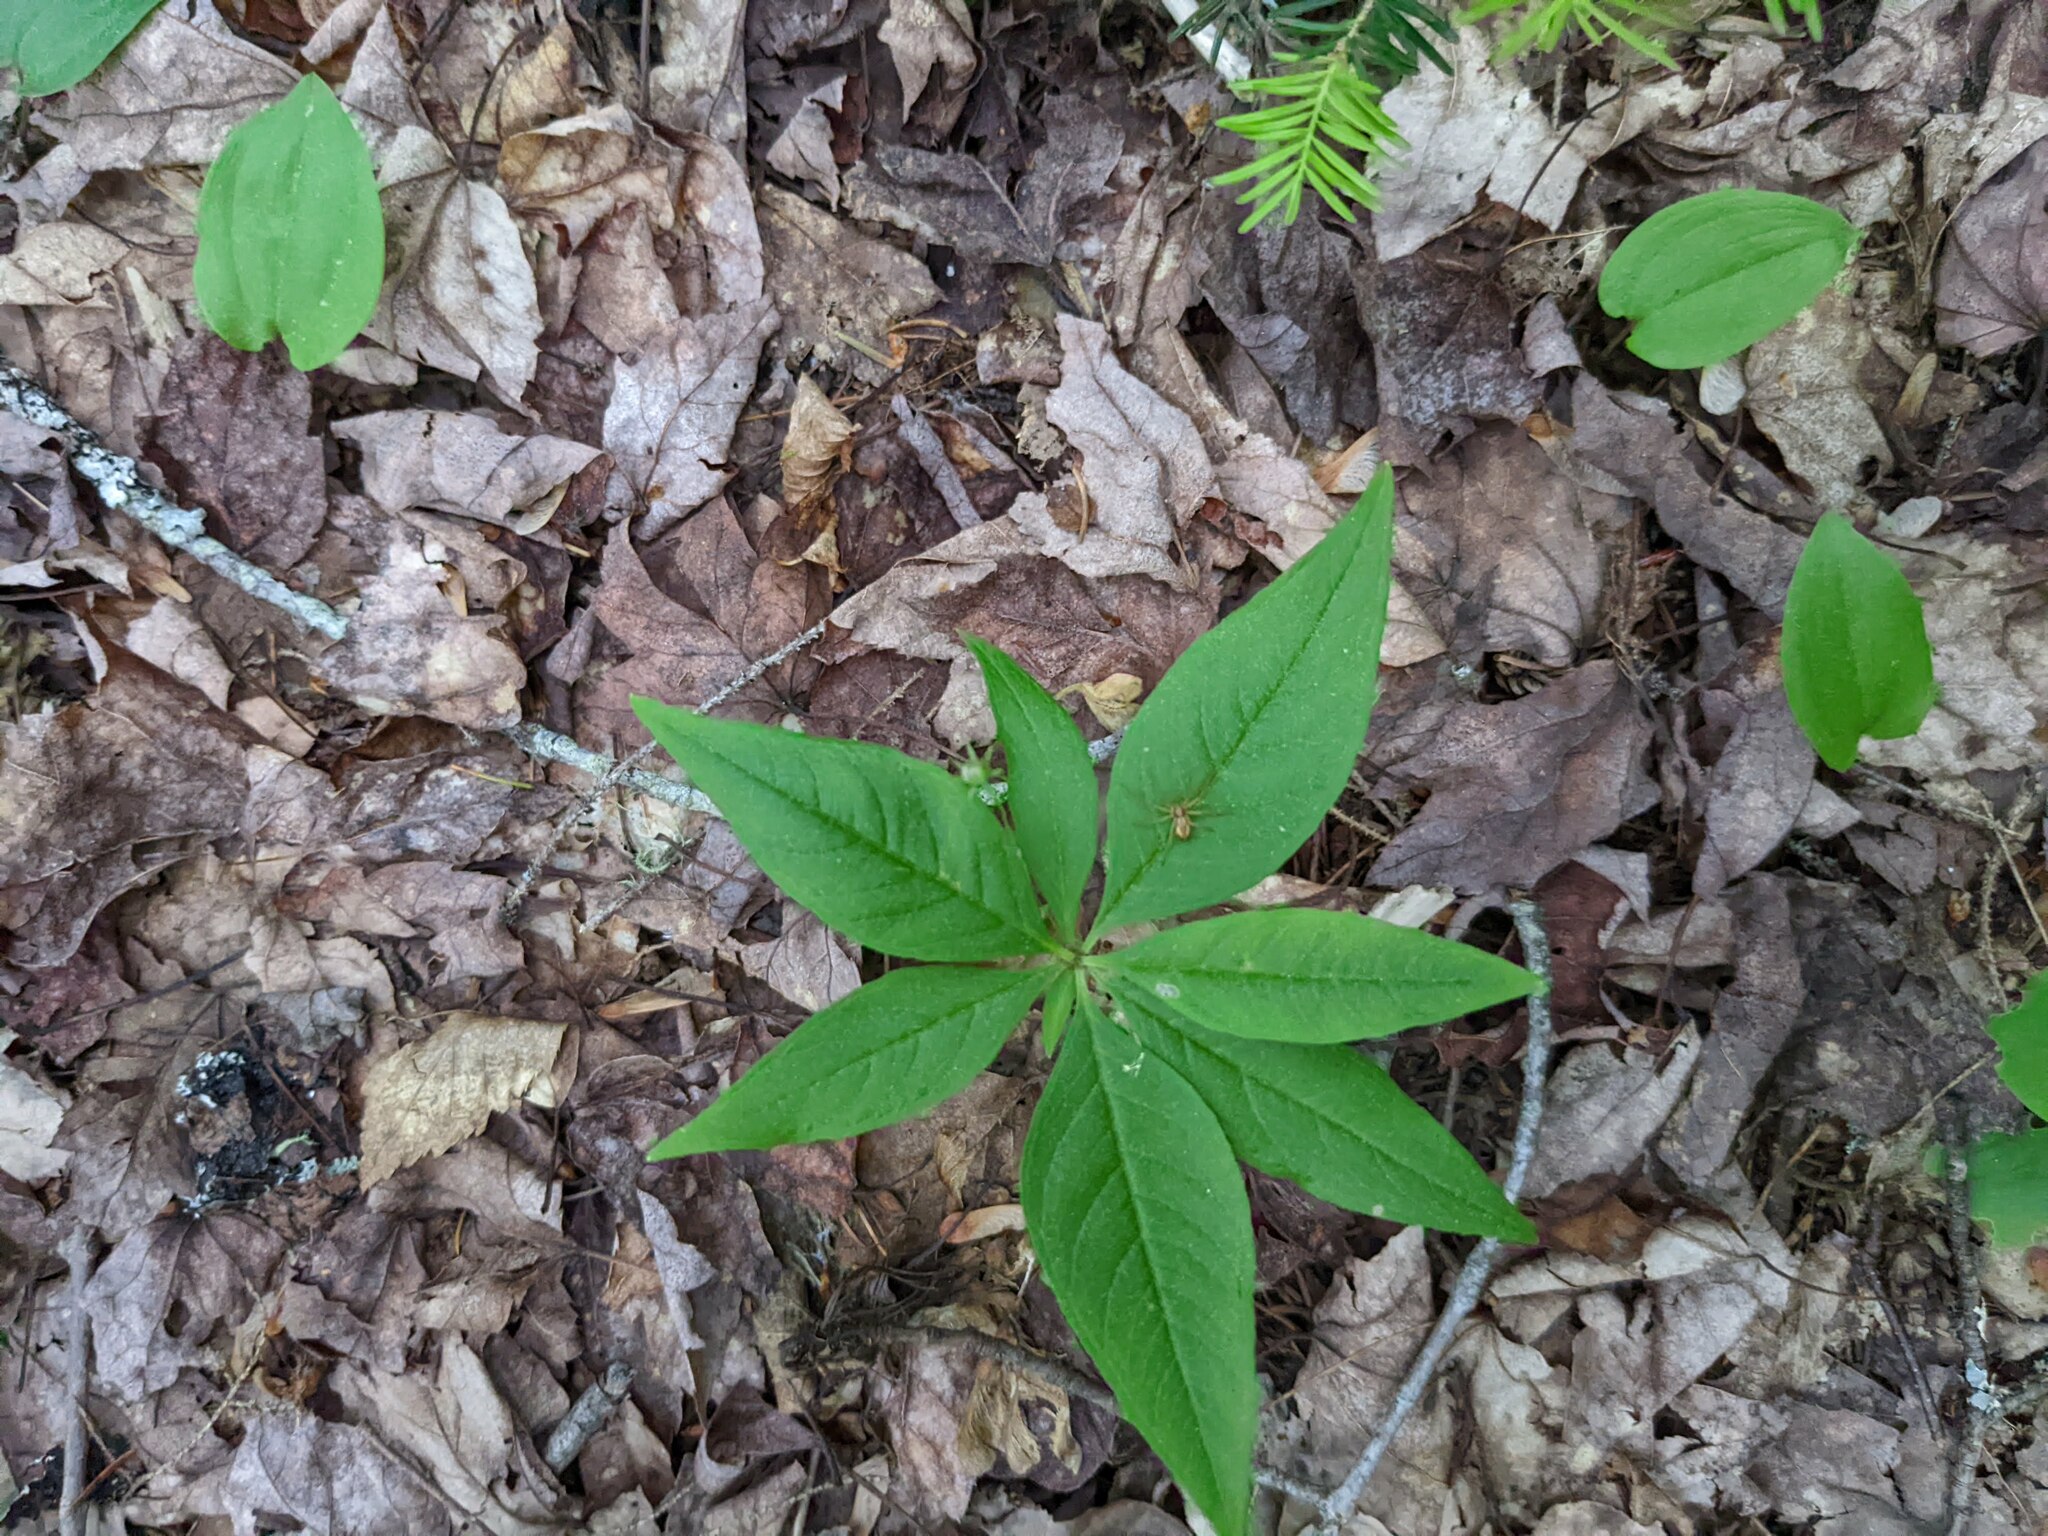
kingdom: Plantae
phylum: Tracheophyta
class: Magnoliopsida
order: Ericales
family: Primulaceae
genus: Lysimachia
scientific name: Lysimachia borealis
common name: American starflower
